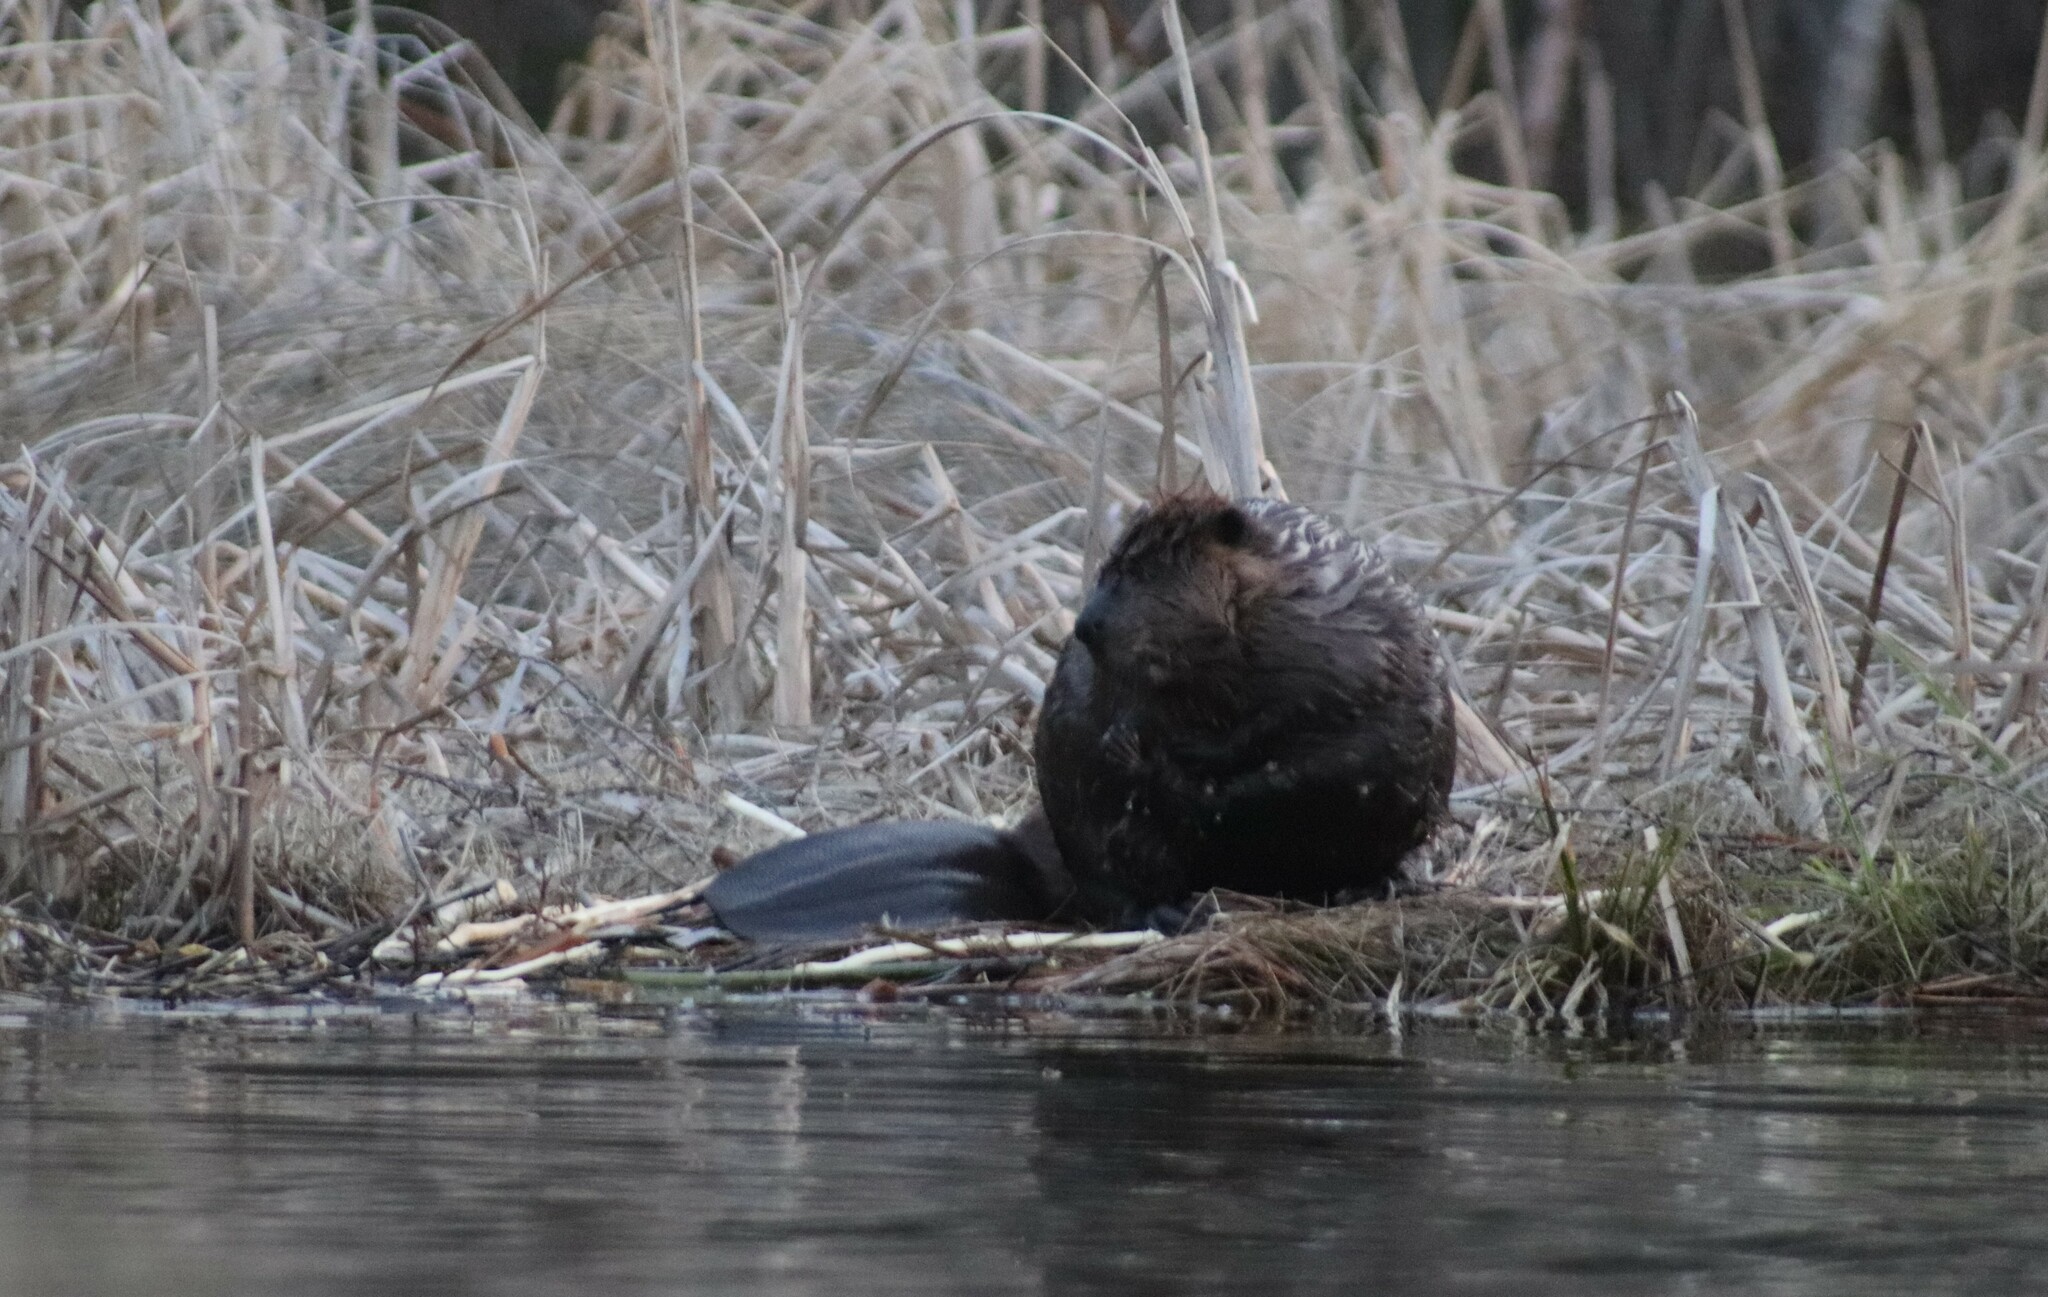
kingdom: Animalia
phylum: Chordata
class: Mammalia
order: Rodentia
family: Castoridae
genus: Castor
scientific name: Castor canadensis
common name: American beaver
